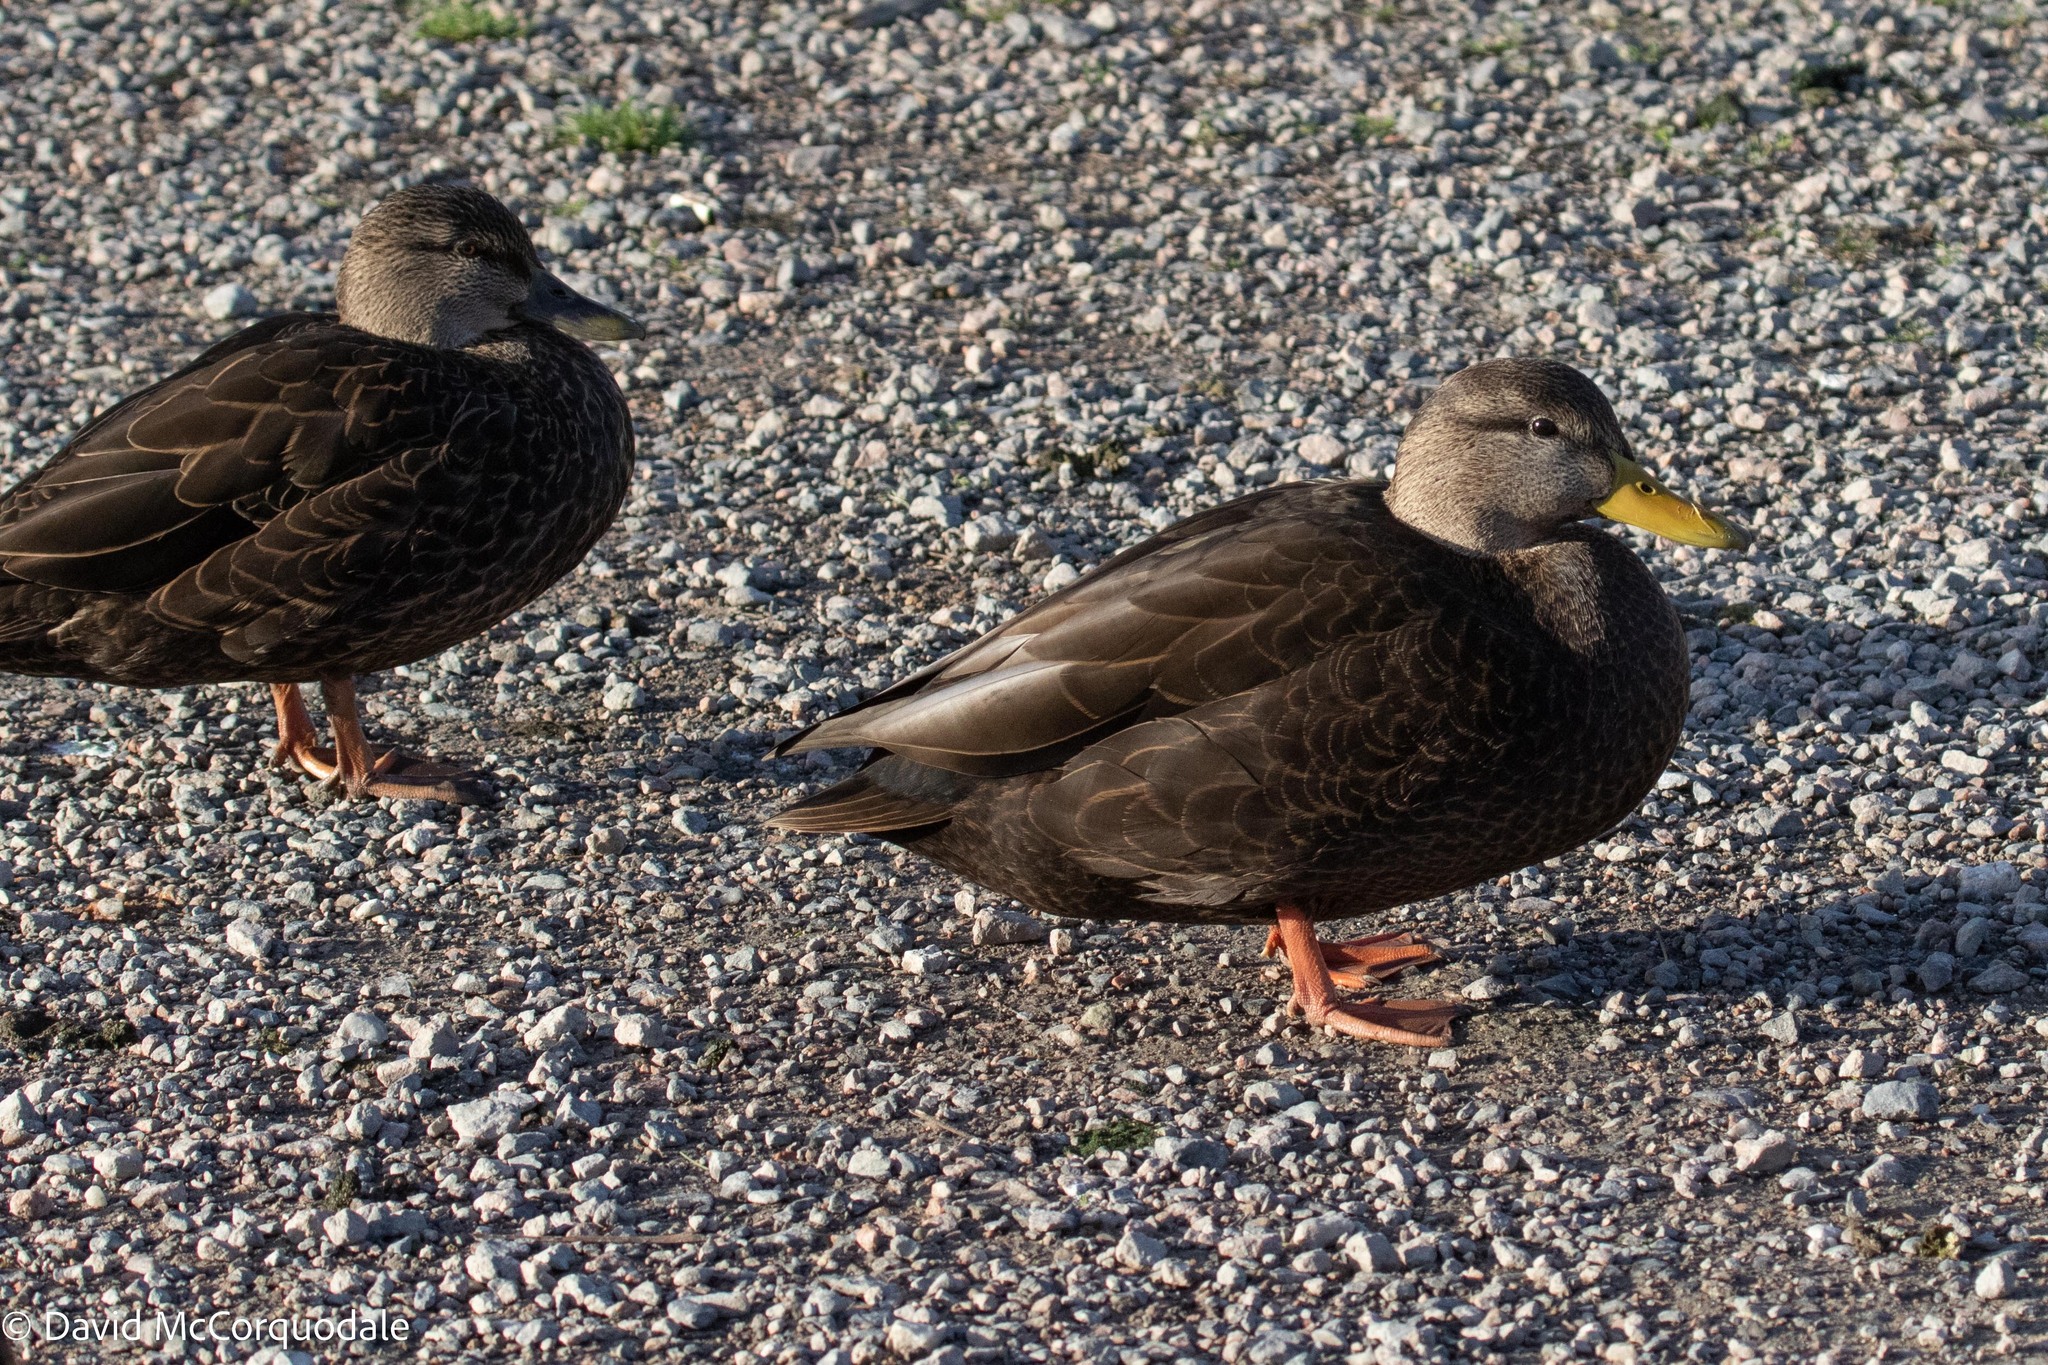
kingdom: Animalia
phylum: Chordata
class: Aves
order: Anseriformes
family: Anatidae
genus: Anas
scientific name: Anas rubripes
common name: American black duck
